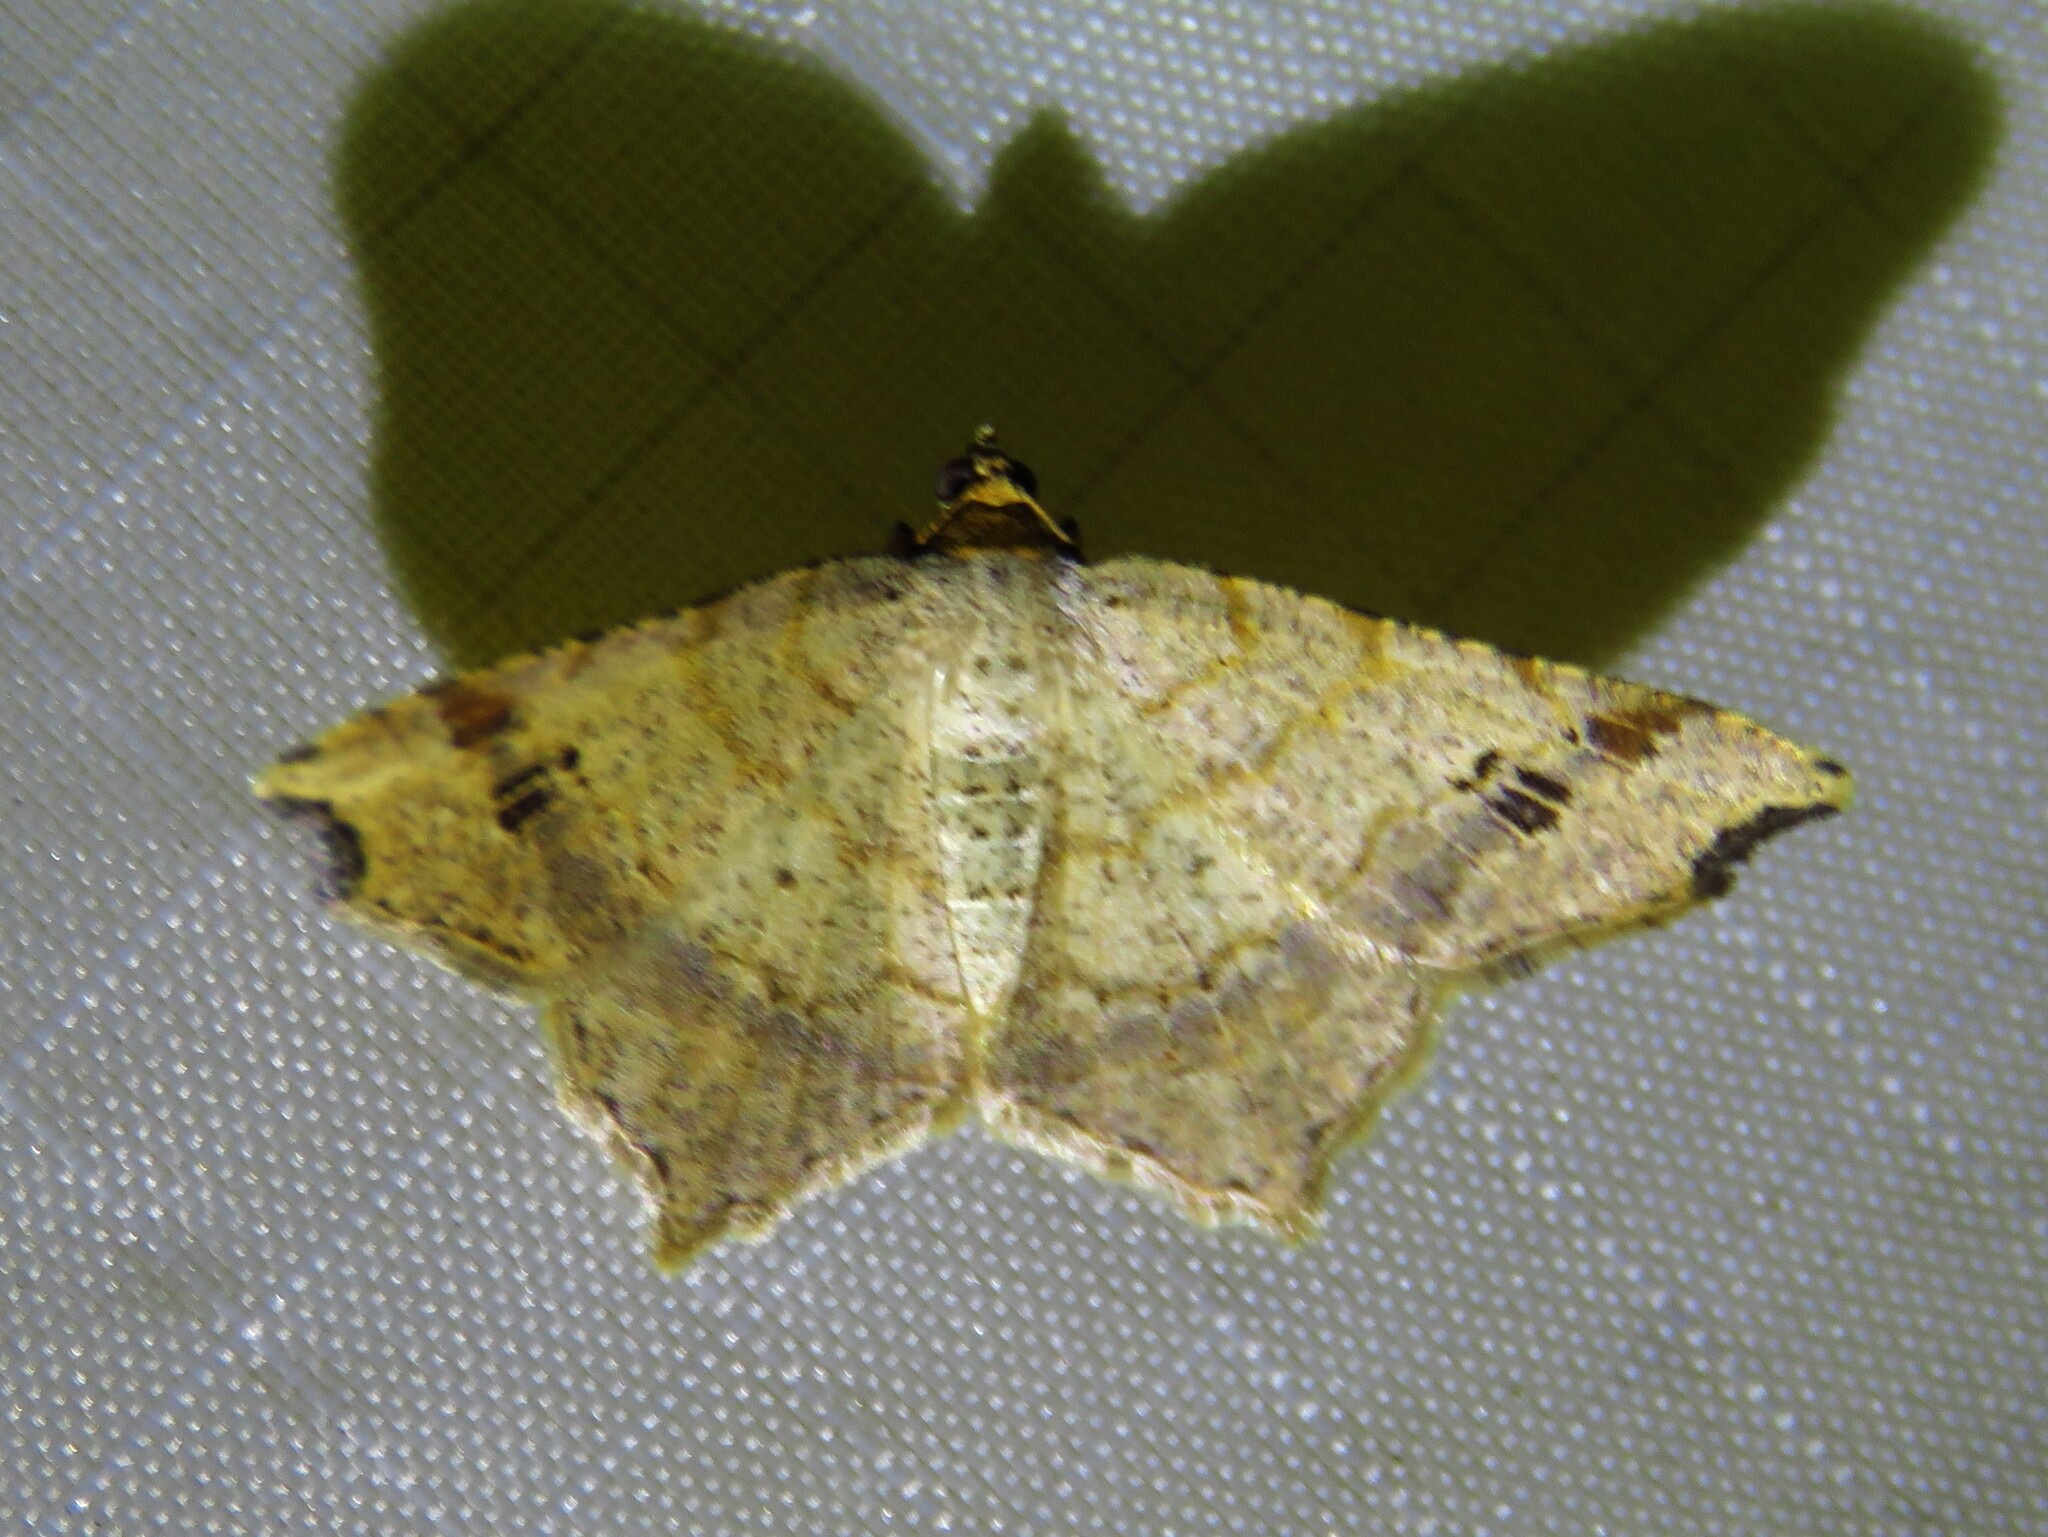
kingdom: Animalia
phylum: Arthropoda
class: Insecta
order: Lepidoptera
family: Geometridae
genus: Macaria
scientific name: Macaria aemulataria
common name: Common angle
